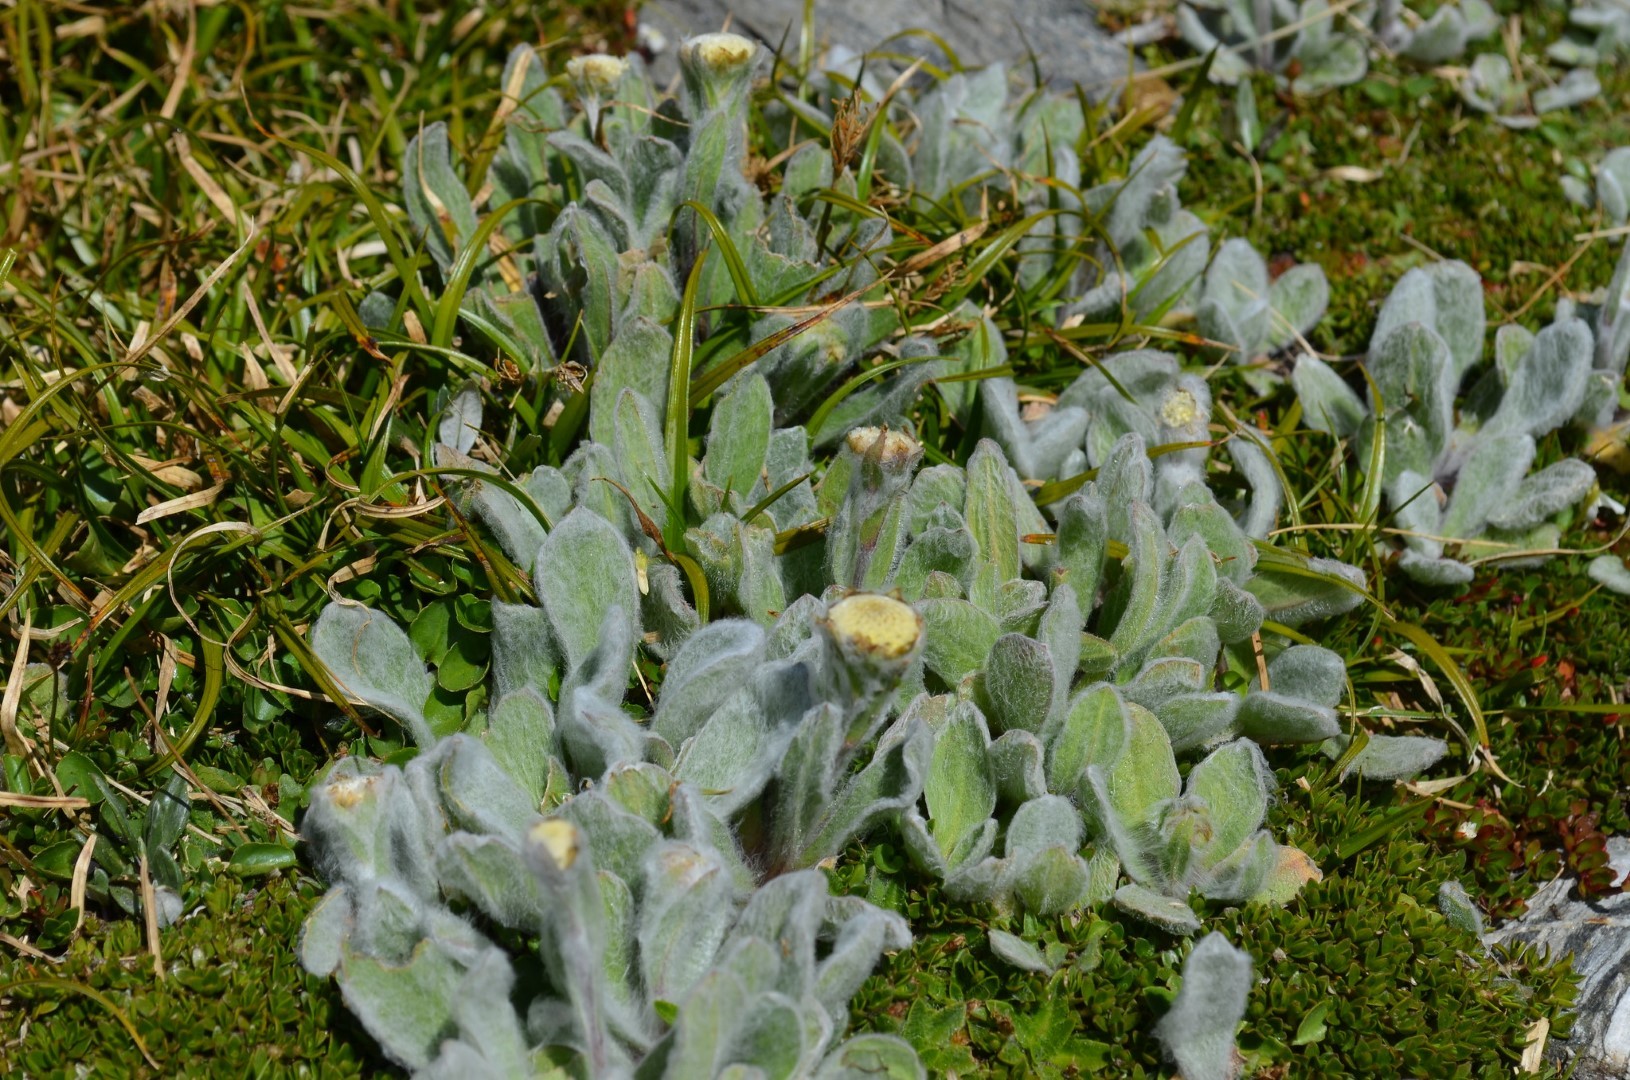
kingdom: Plantae
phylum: Tracheophyta
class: Magnoliopsida
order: Asterales
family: Asteraceae
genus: Craspedia
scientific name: Craspedia lanata
